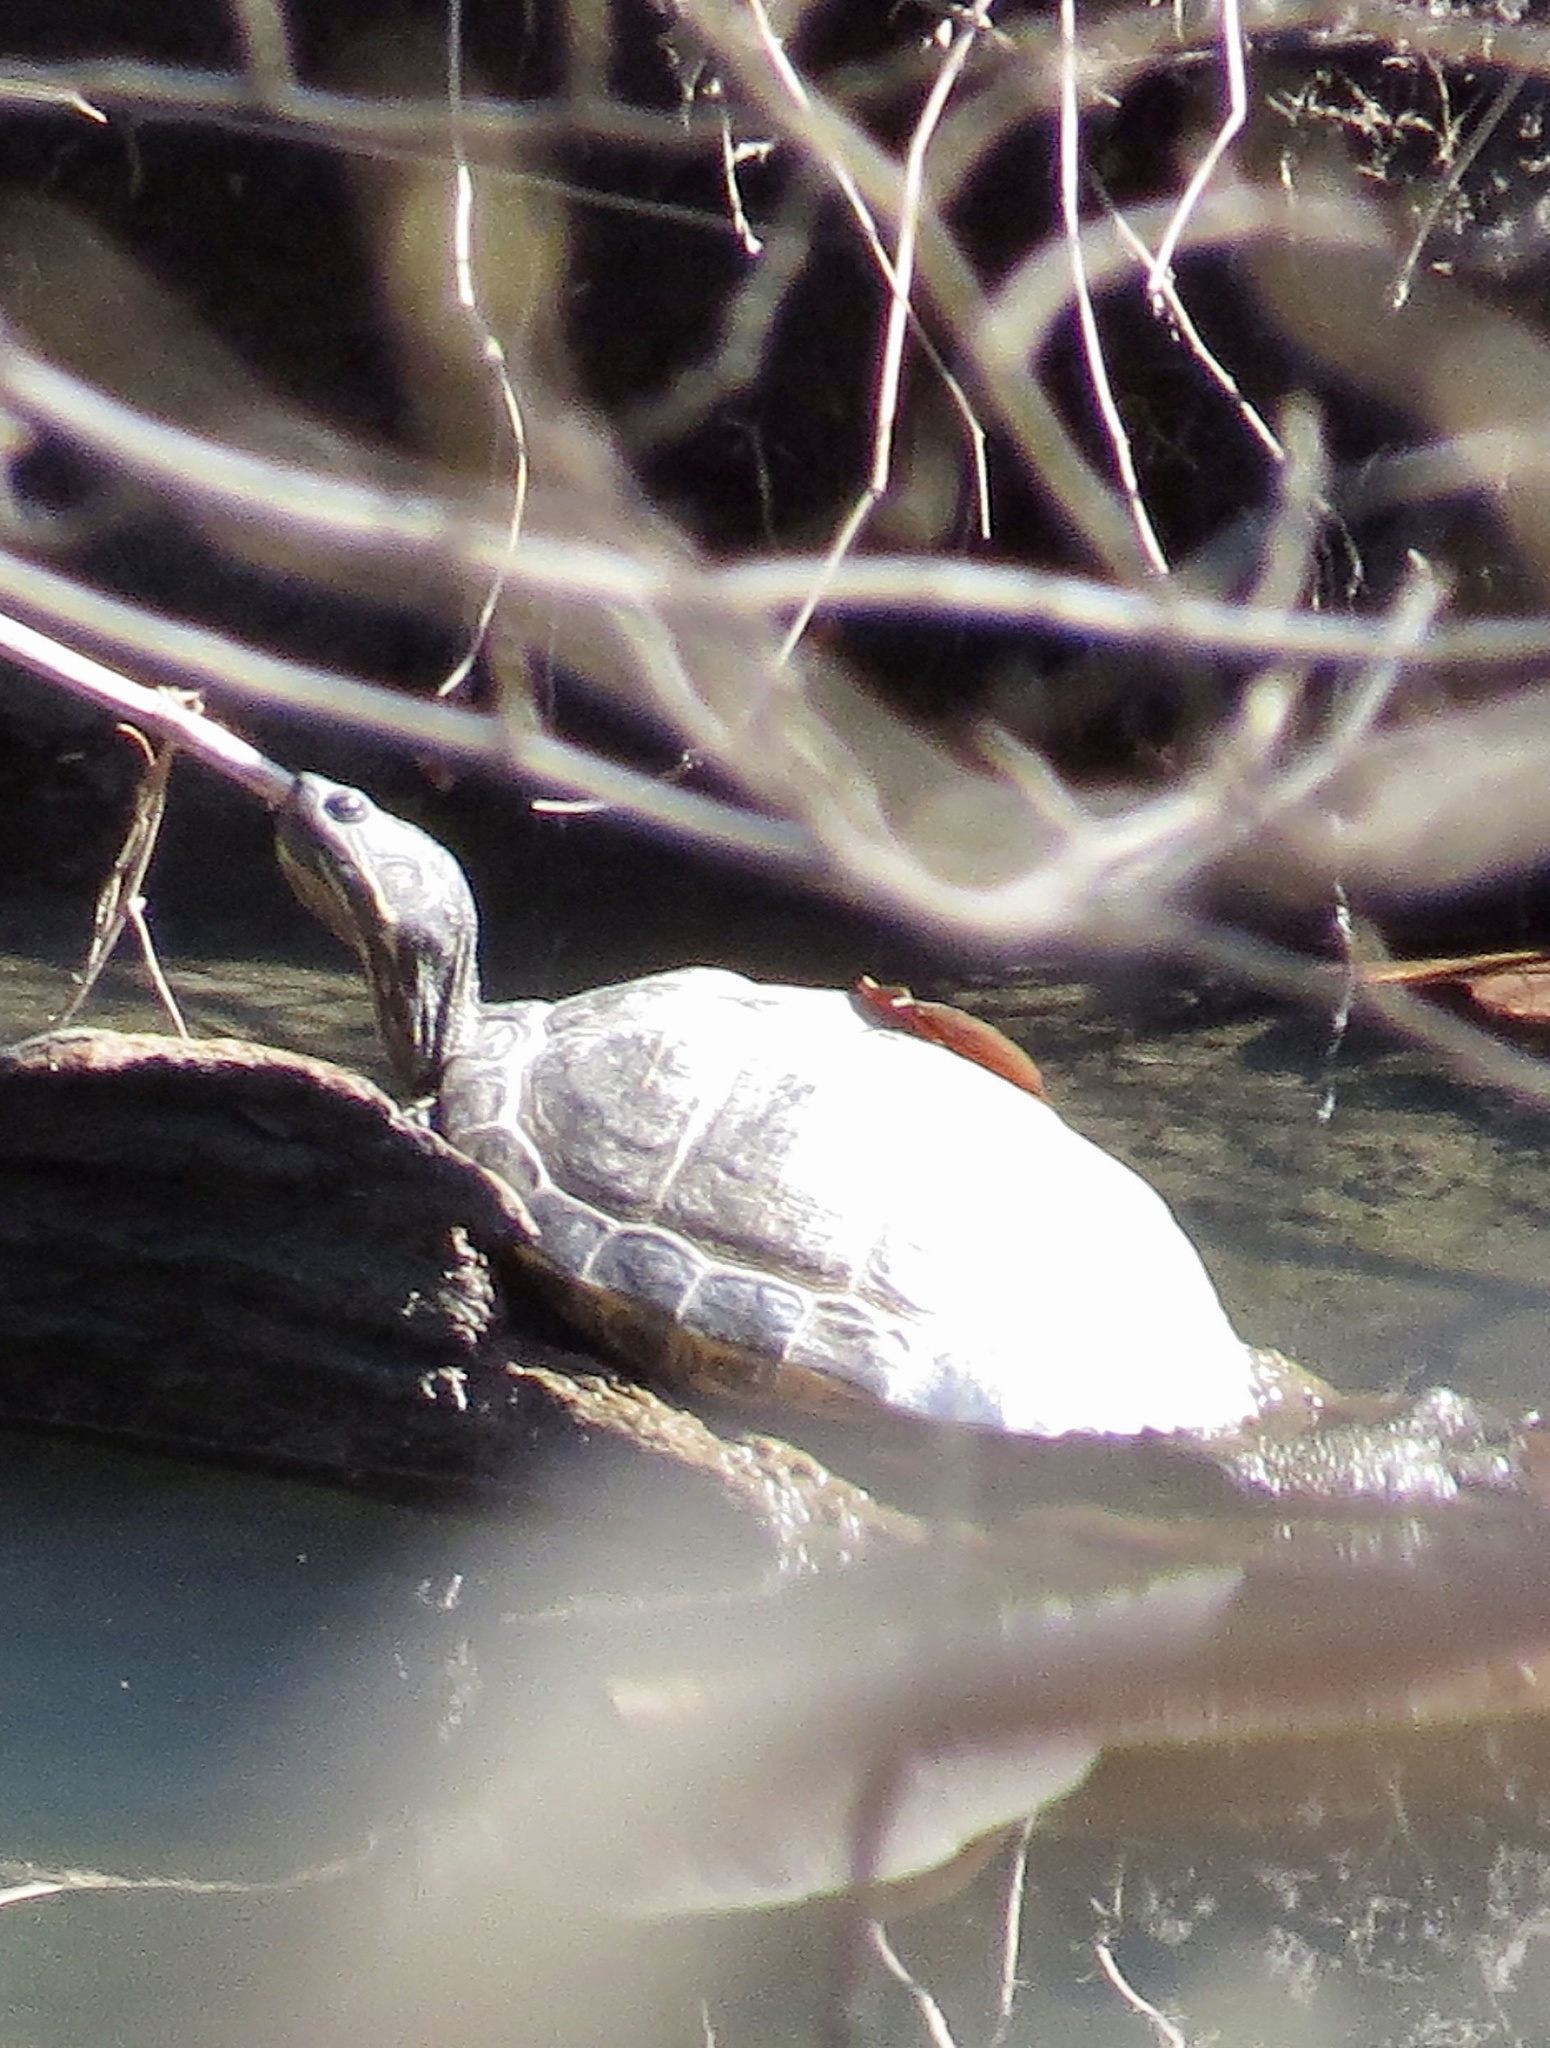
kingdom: Animalia
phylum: Chordata
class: Testudines
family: Emydidae
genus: Trachemys
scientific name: Trachemys scripta
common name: Slider
